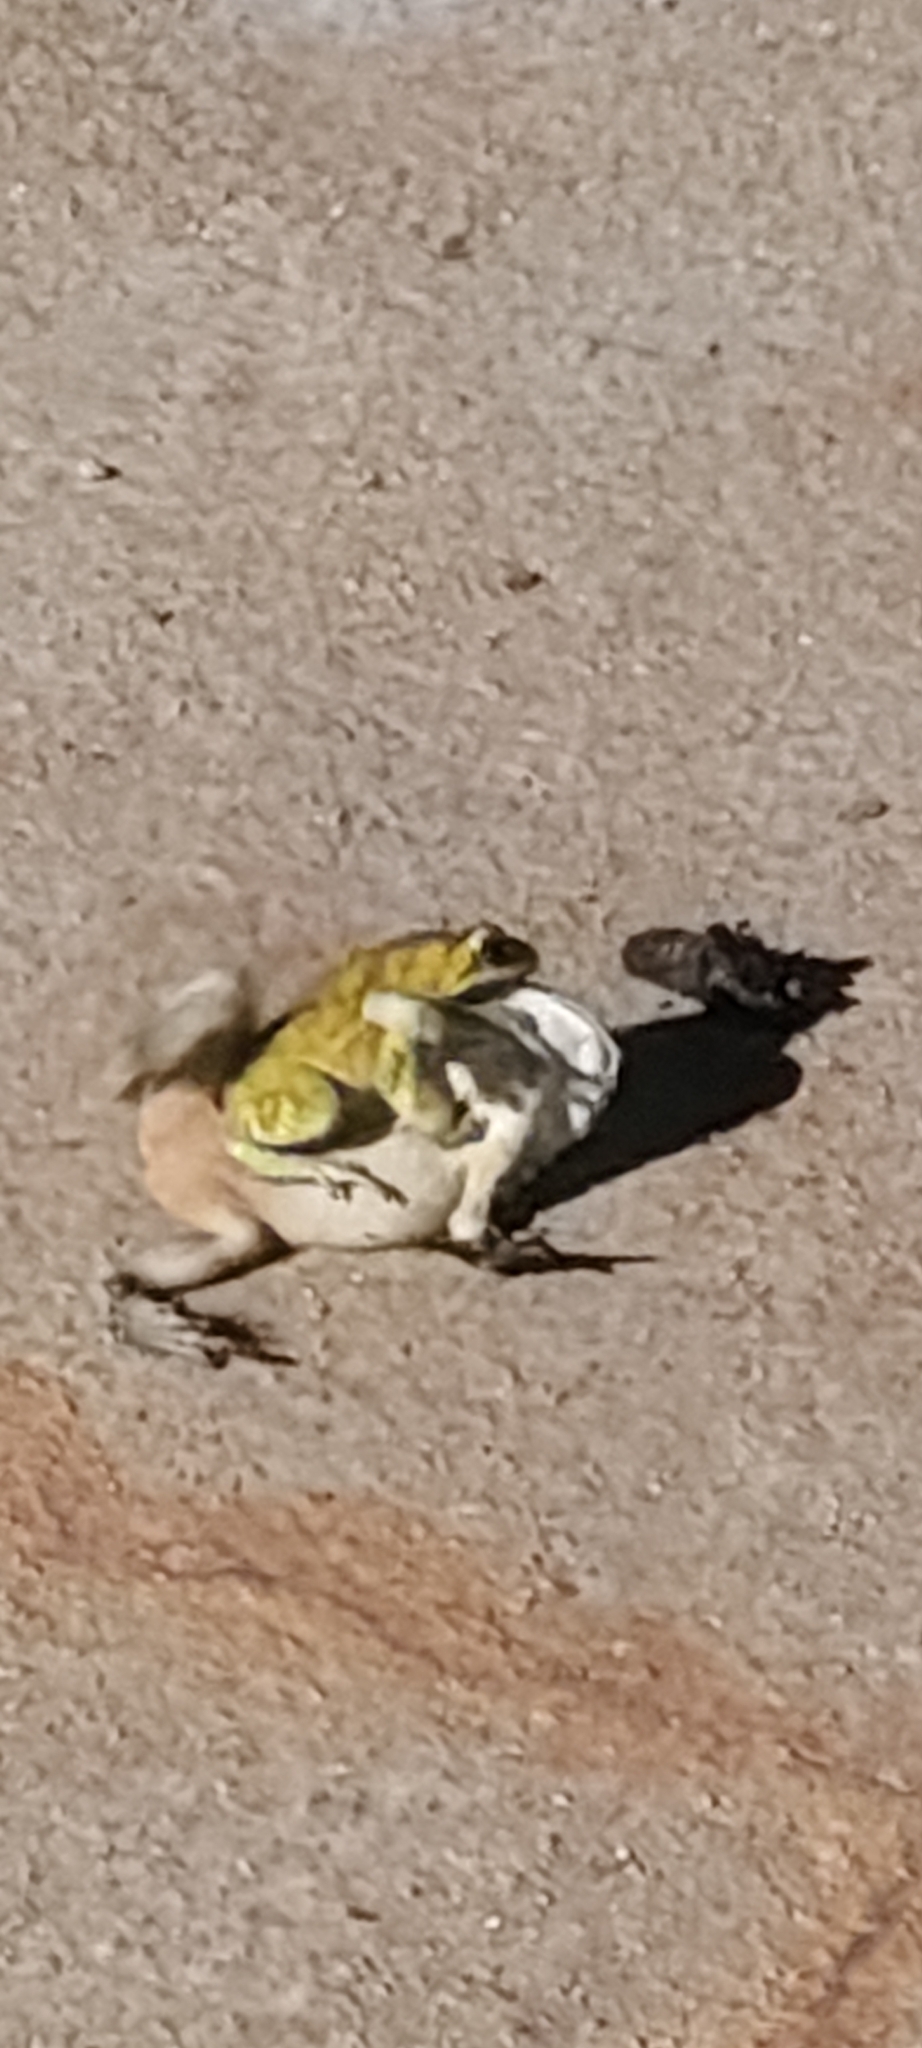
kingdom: Animalia
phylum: Chordata
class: Amphibia
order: Anura
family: Bufonidae
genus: Duttaphrynus
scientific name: Duttaphrynus melanostictus
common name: Common sunda toad
